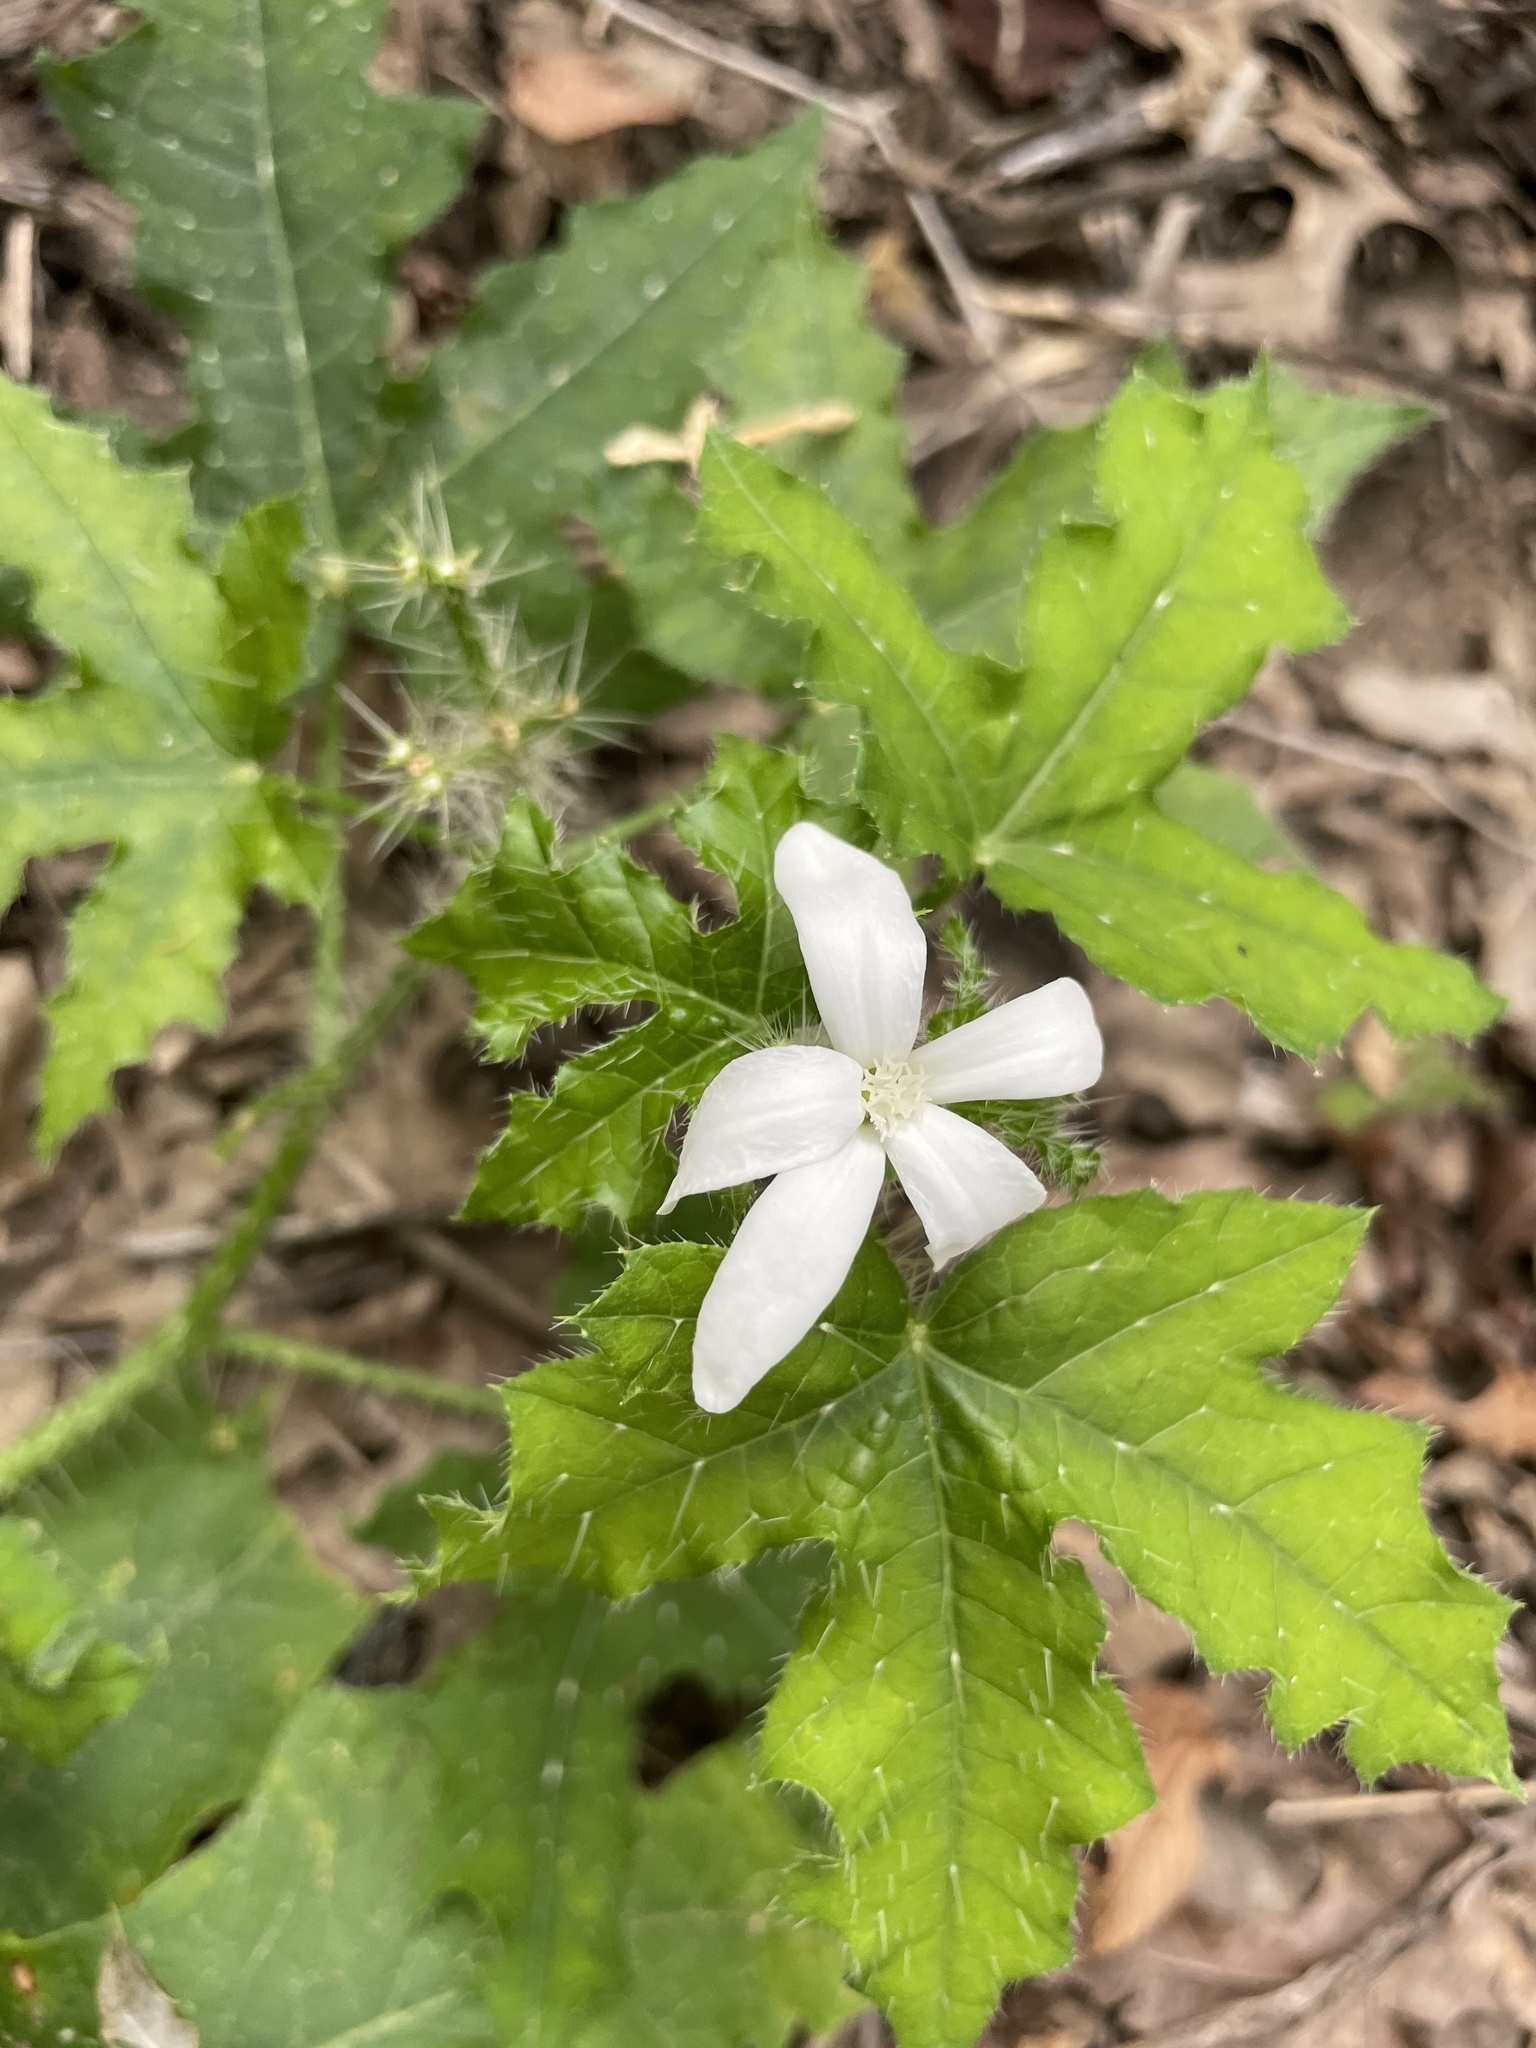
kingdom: Plantae
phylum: Tracheophyta
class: Magnoliopsida
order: Malpighiales
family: Euphorbiaceae
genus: Cnidoscolus
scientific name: Cnidoscolus texanus
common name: Texas bull-nettle
